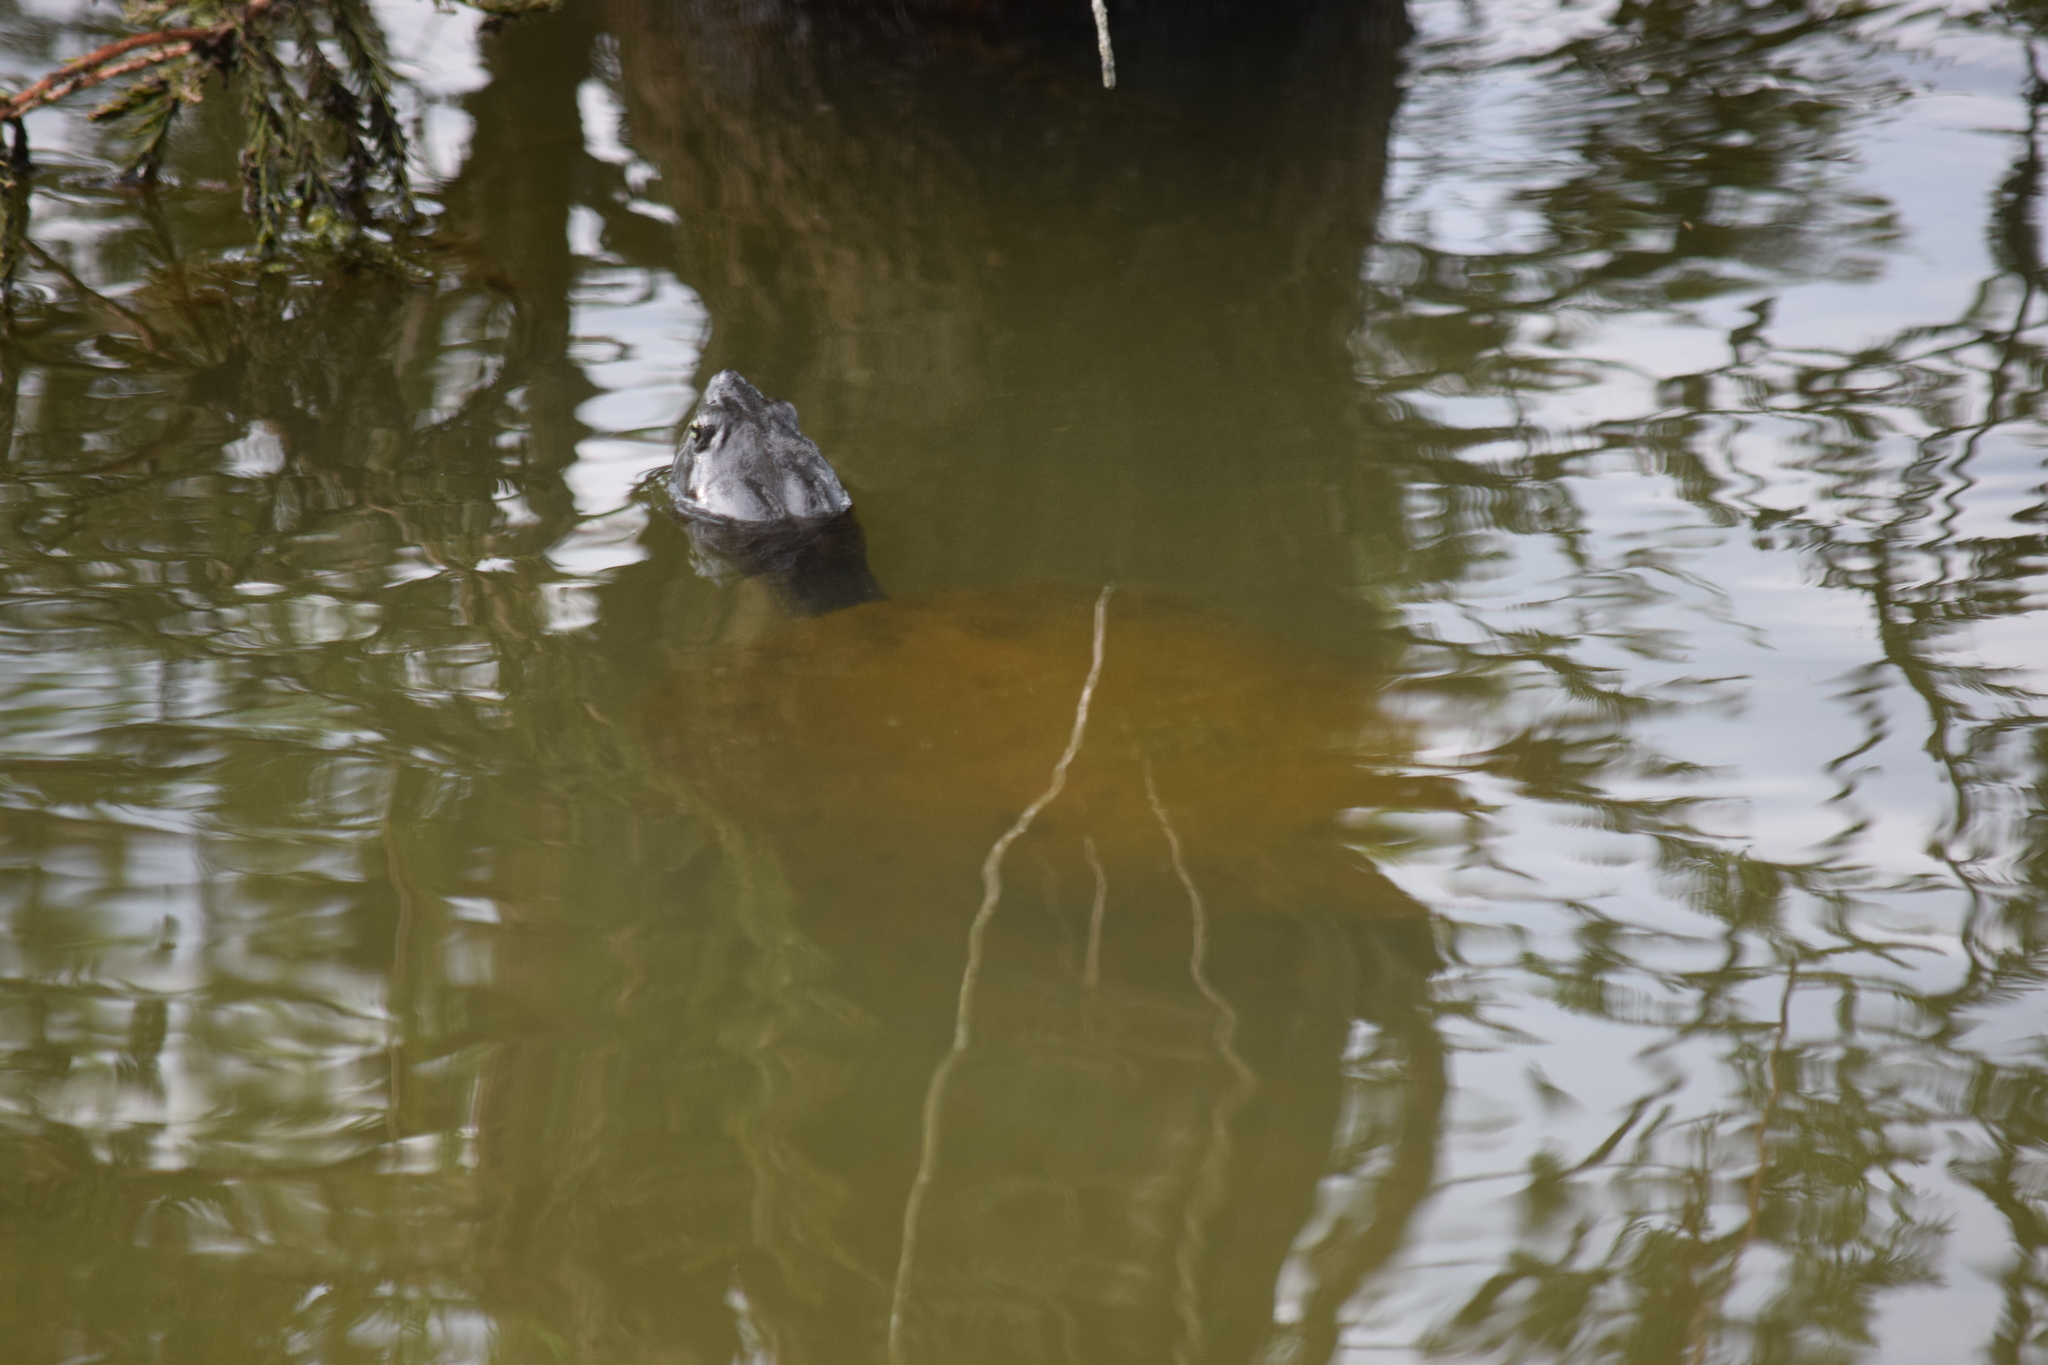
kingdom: Animalia
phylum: Chordata
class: Testudines
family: Emydidae
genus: Pseudemys
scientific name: Pseudemys rubriventris
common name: American red-bellied turtle
